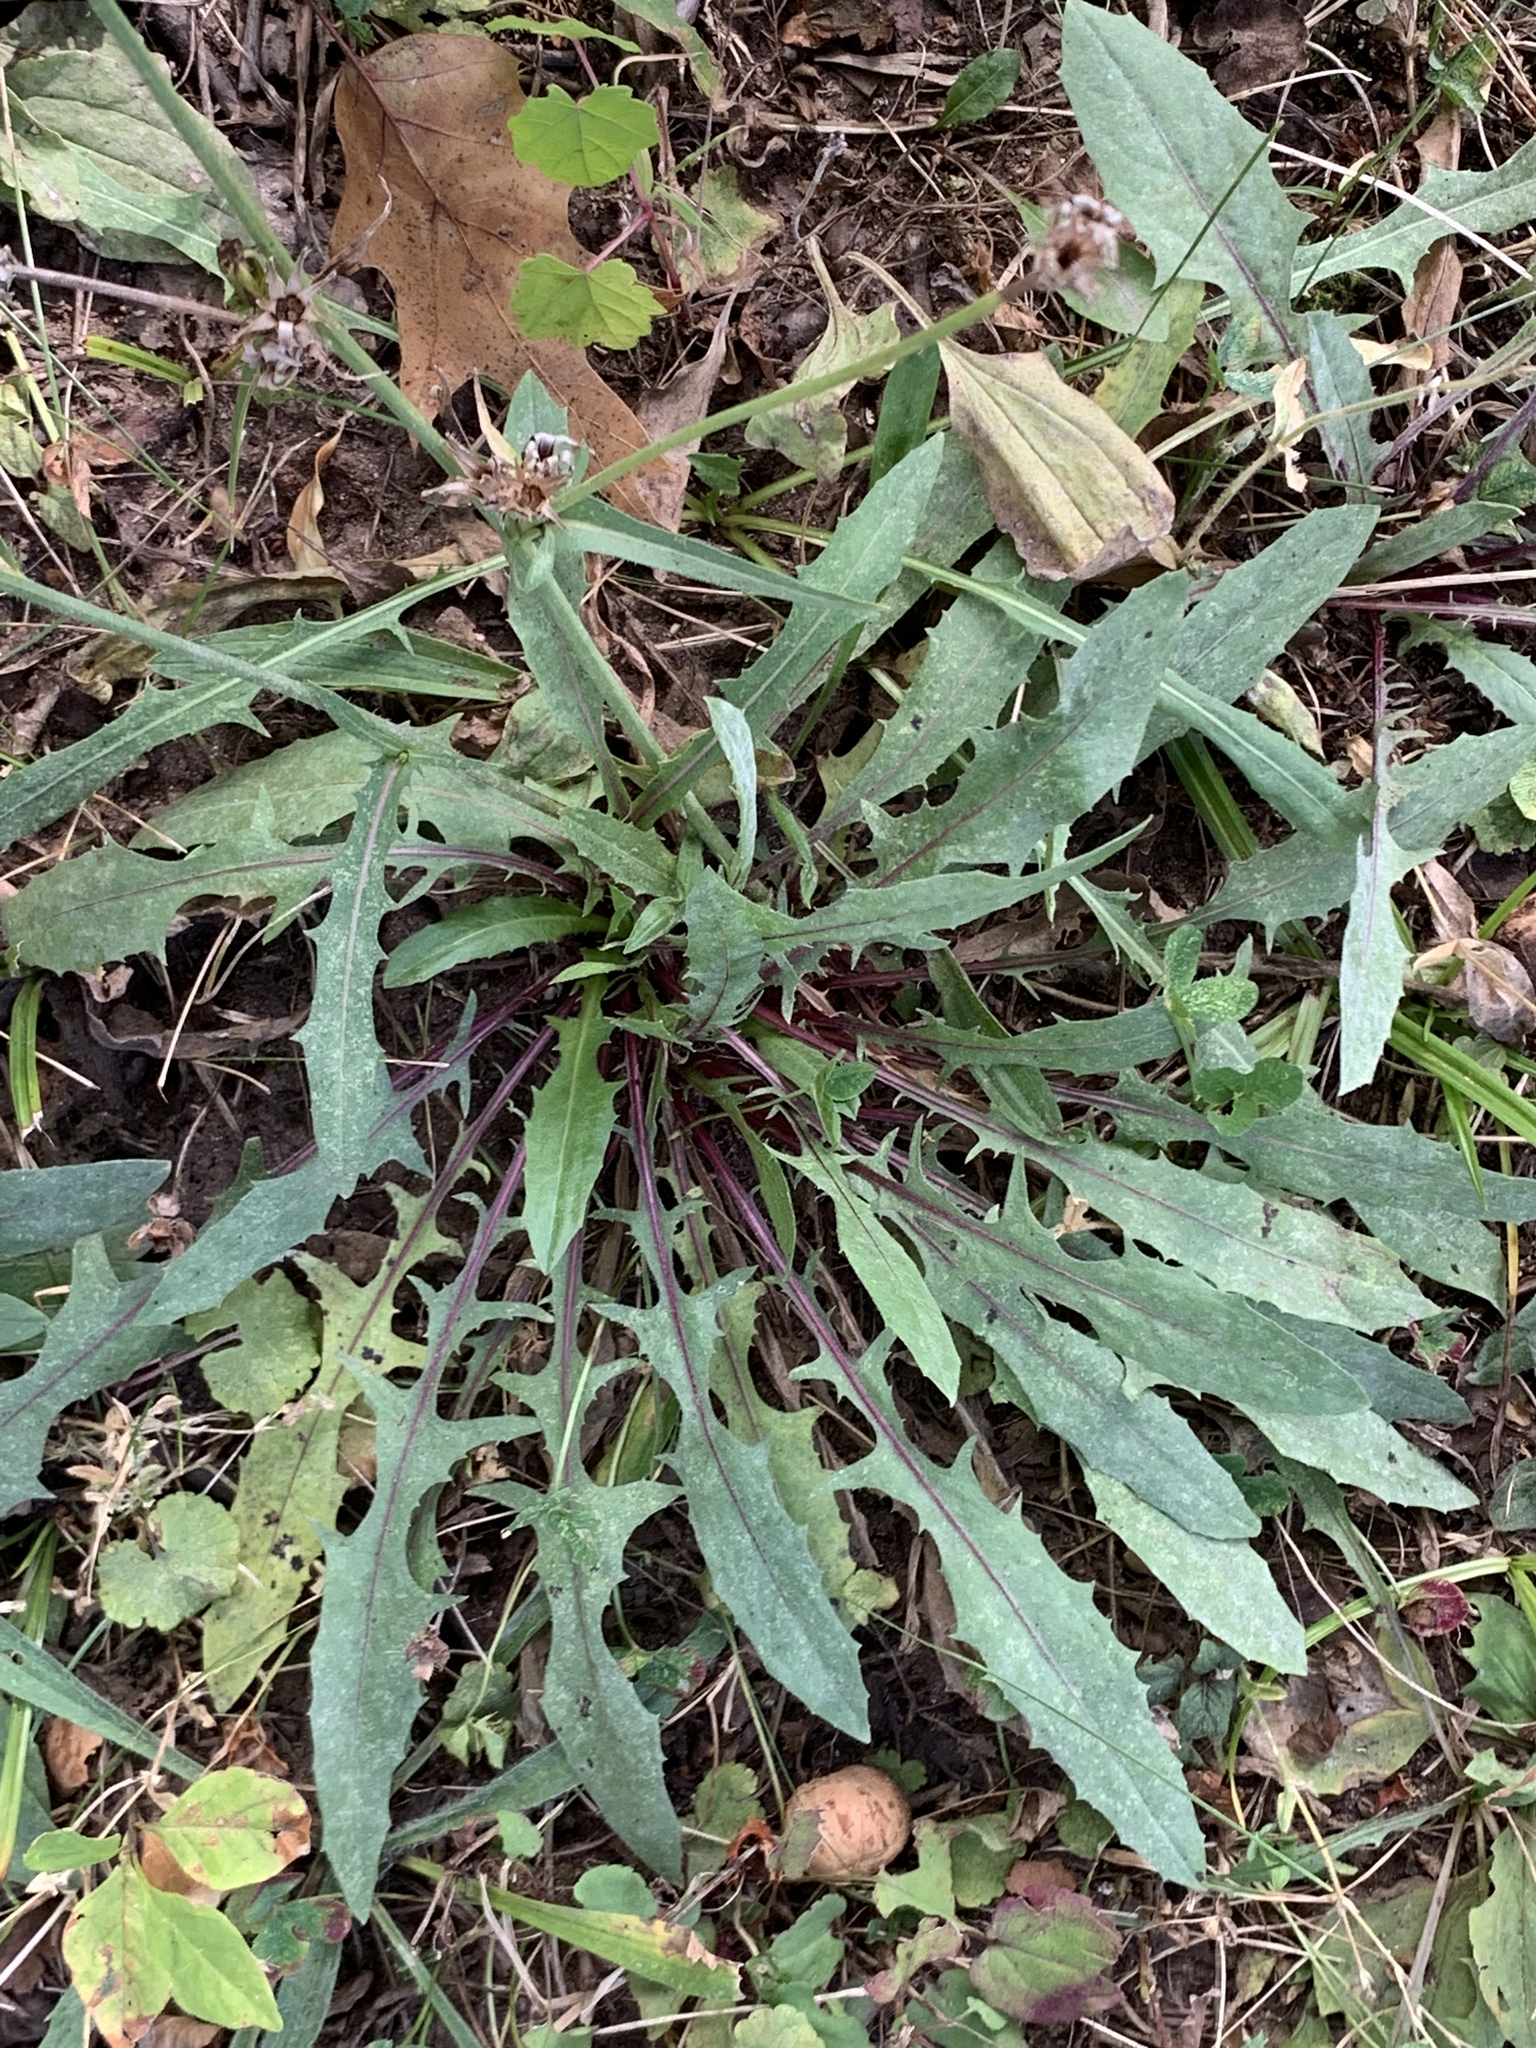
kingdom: Plantae
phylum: Tracheophyta
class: Magnoliopsida
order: Asterales
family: Asteraceae
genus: Cichorium
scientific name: Cichorium intybus
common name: Chicory
